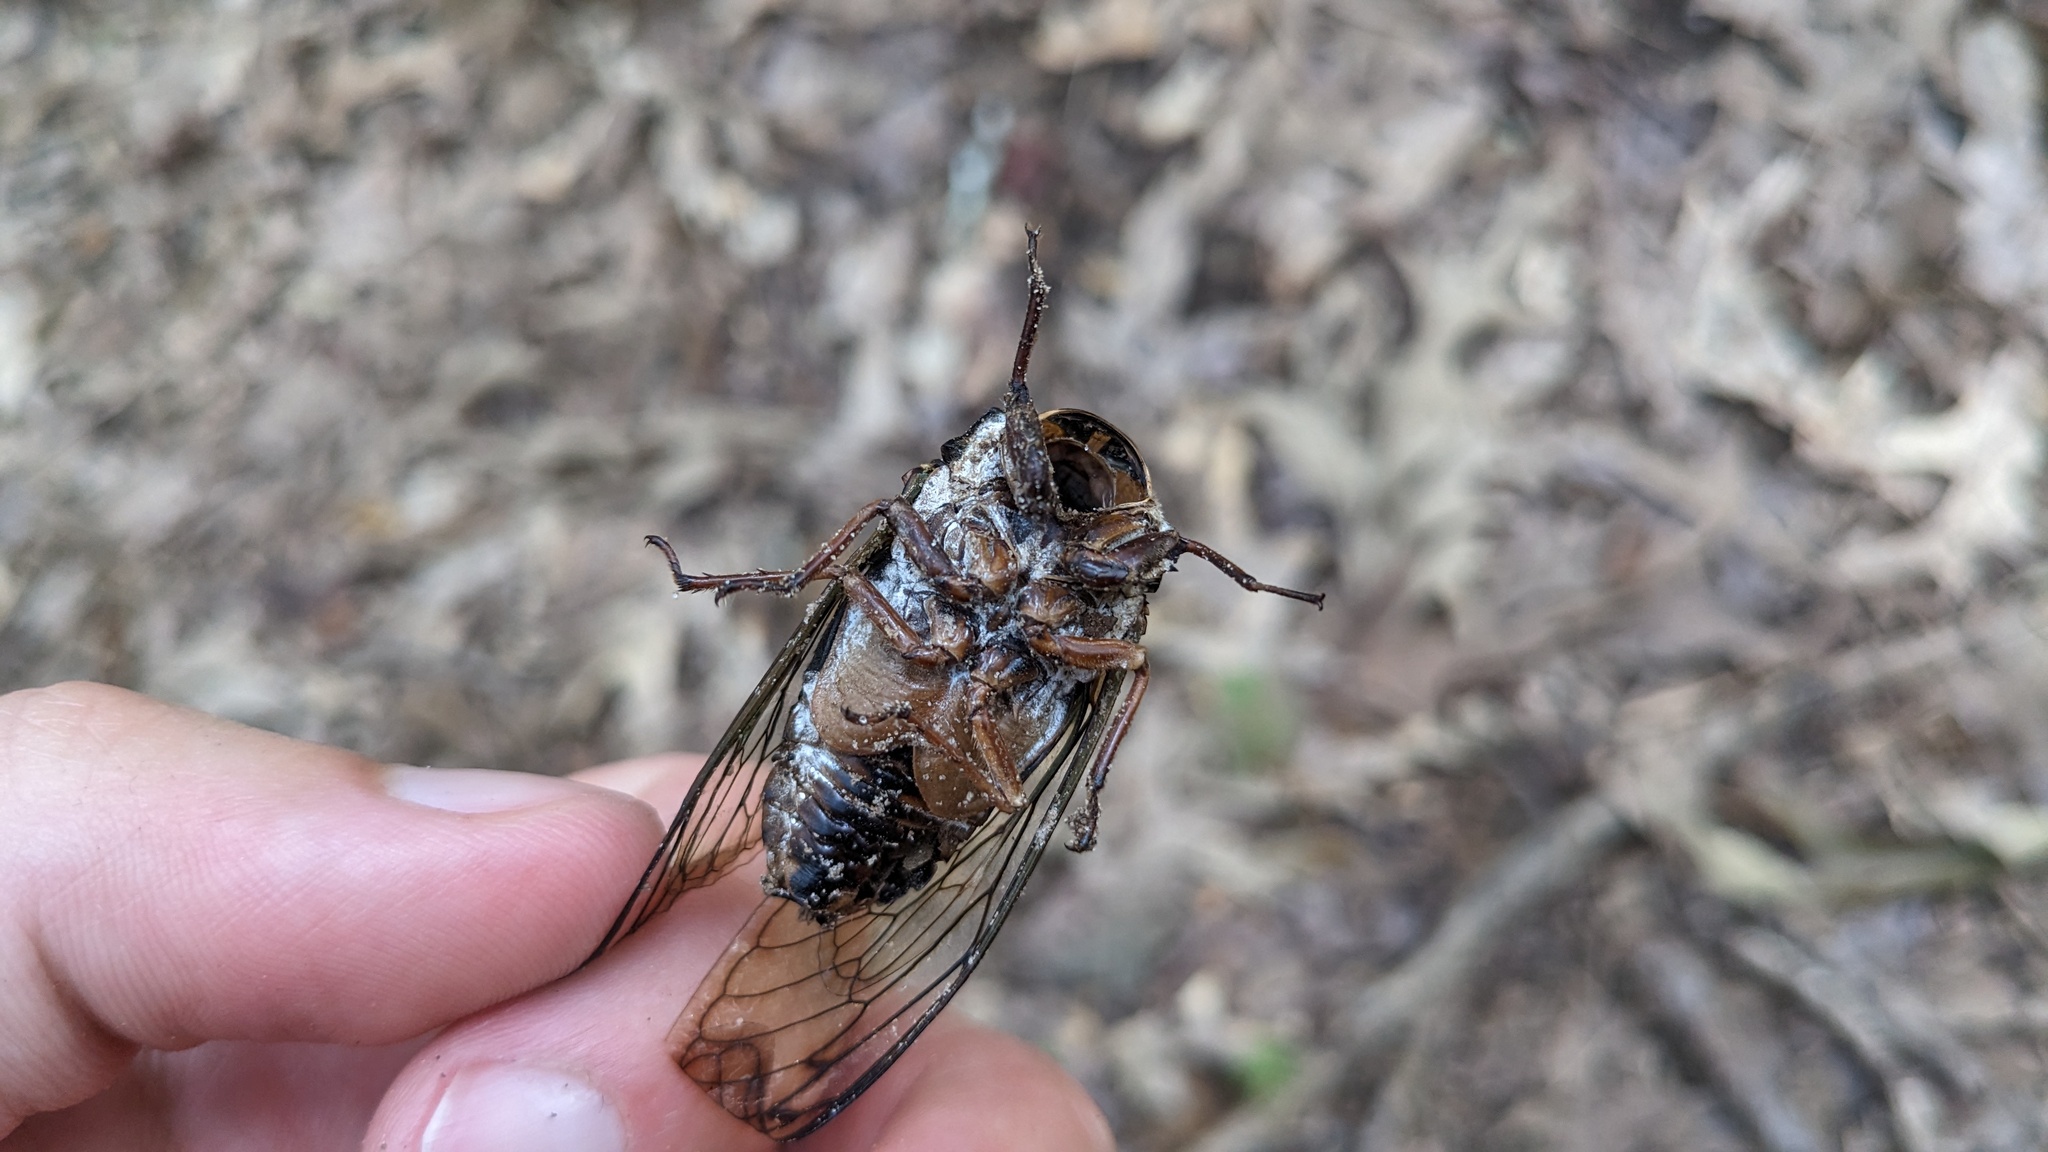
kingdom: Animalia
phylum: Arthropoda
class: Insecta
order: Hemiptera
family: Cicadidae
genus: Neotibicen
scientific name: Neotibicen lyricen
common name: Lyric cicada
